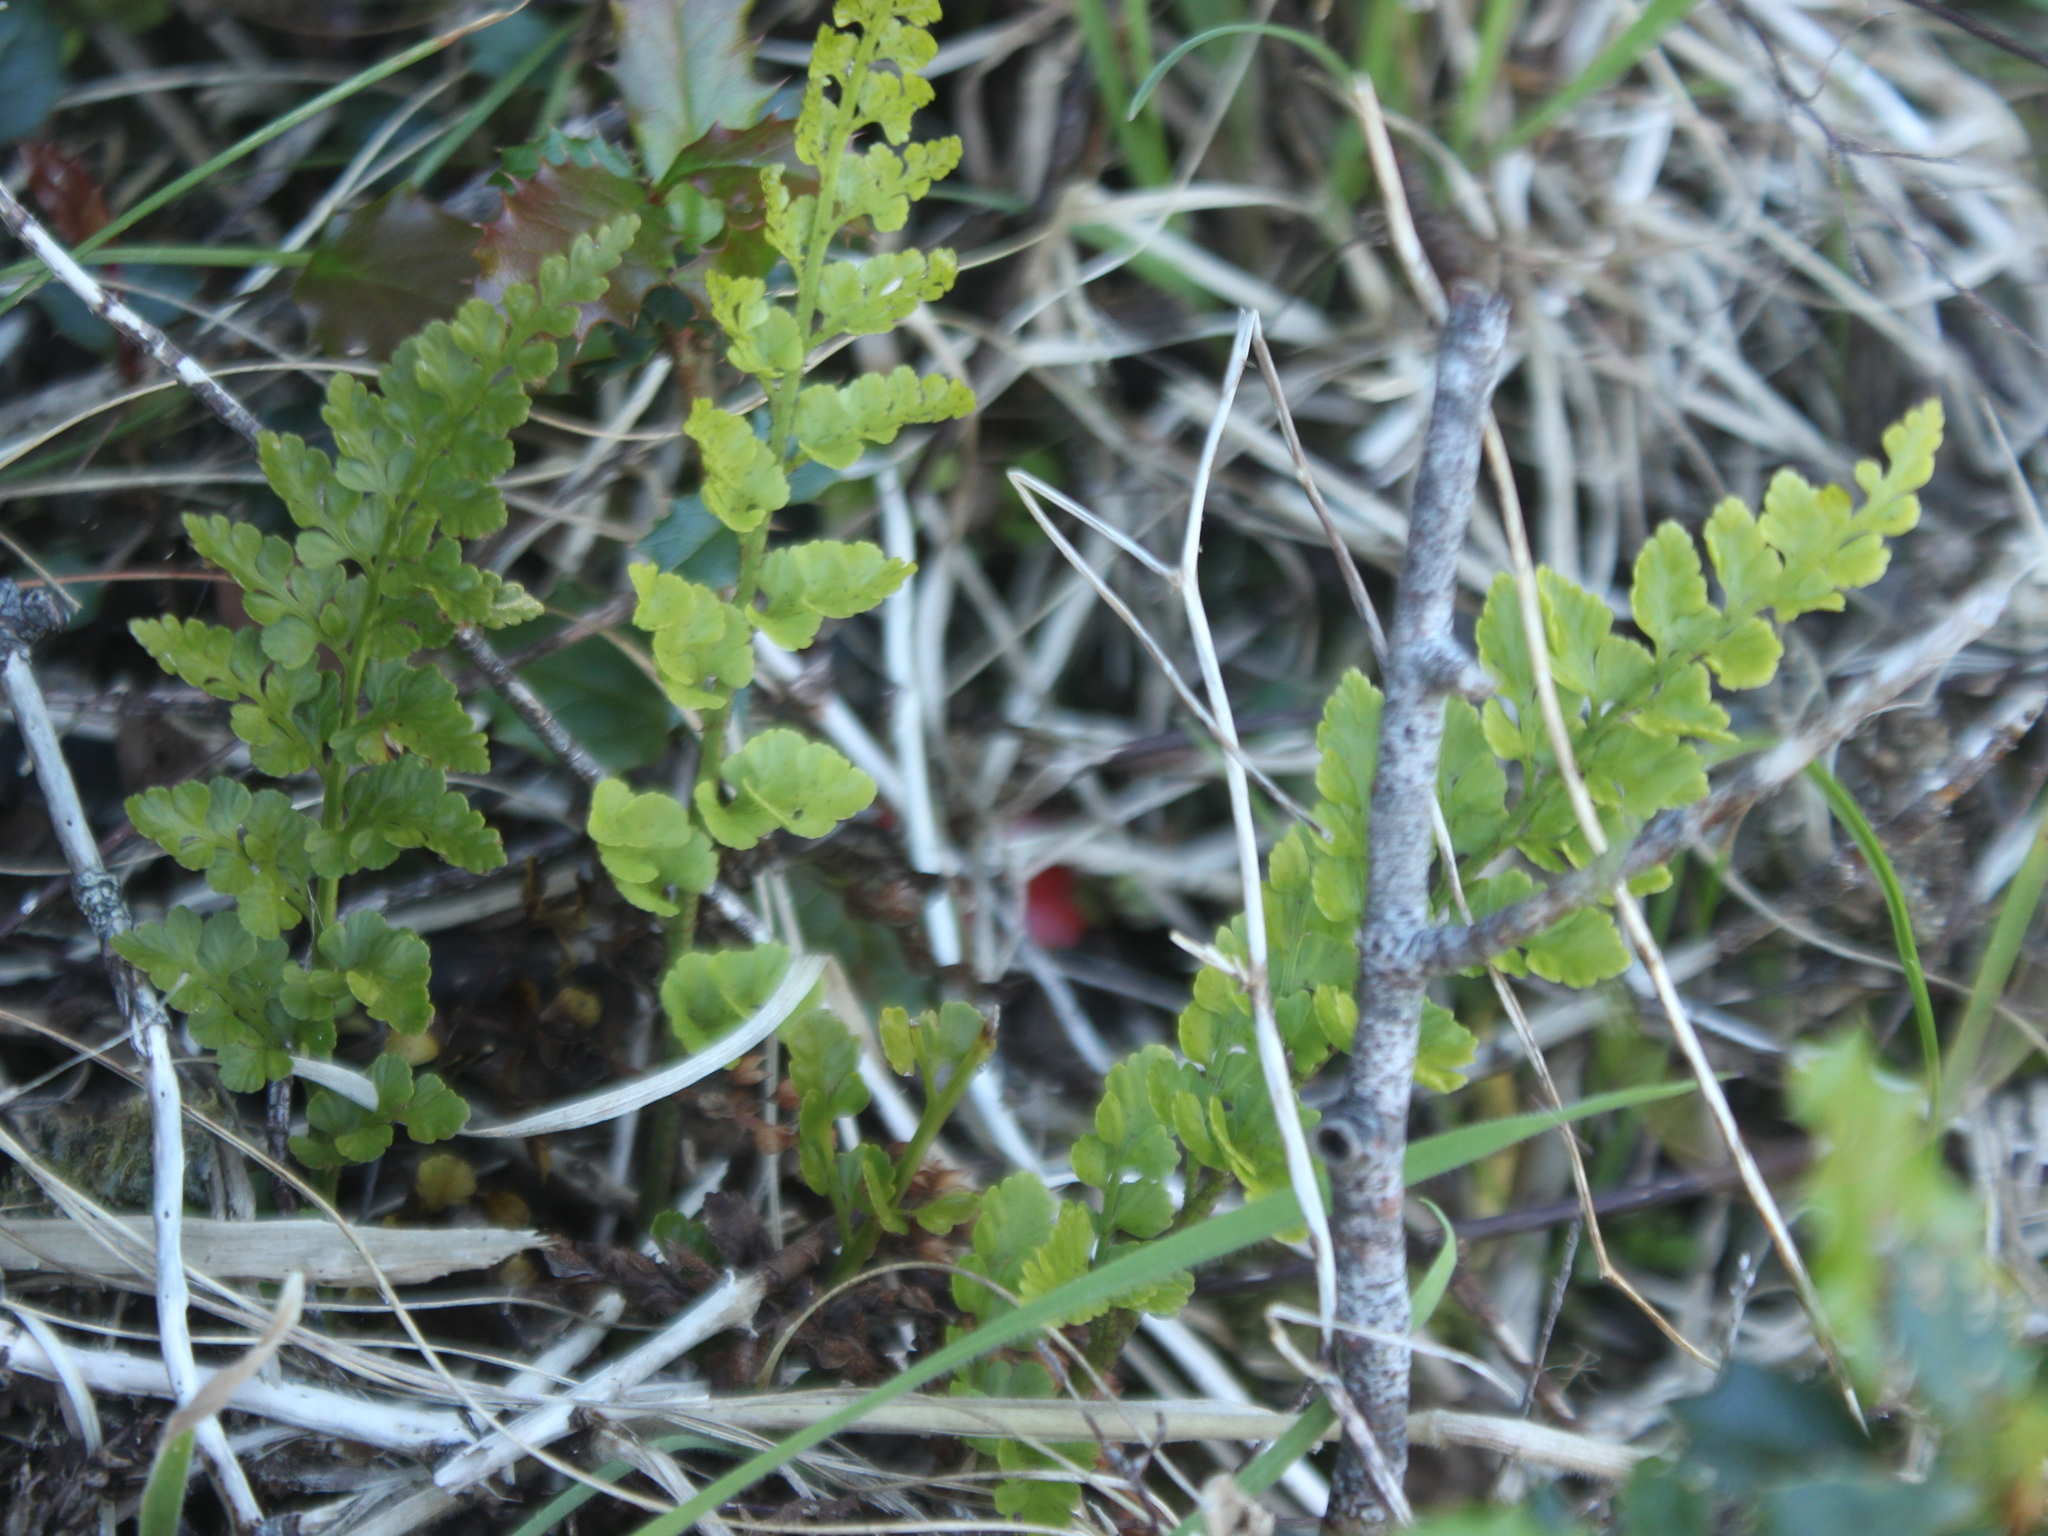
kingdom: Plantae
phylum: Tracheophyta
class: Polypodiopsida
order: Polypodiales
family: Aspleniaceae
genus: Asplenium
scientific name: Asplenium hookerianum
